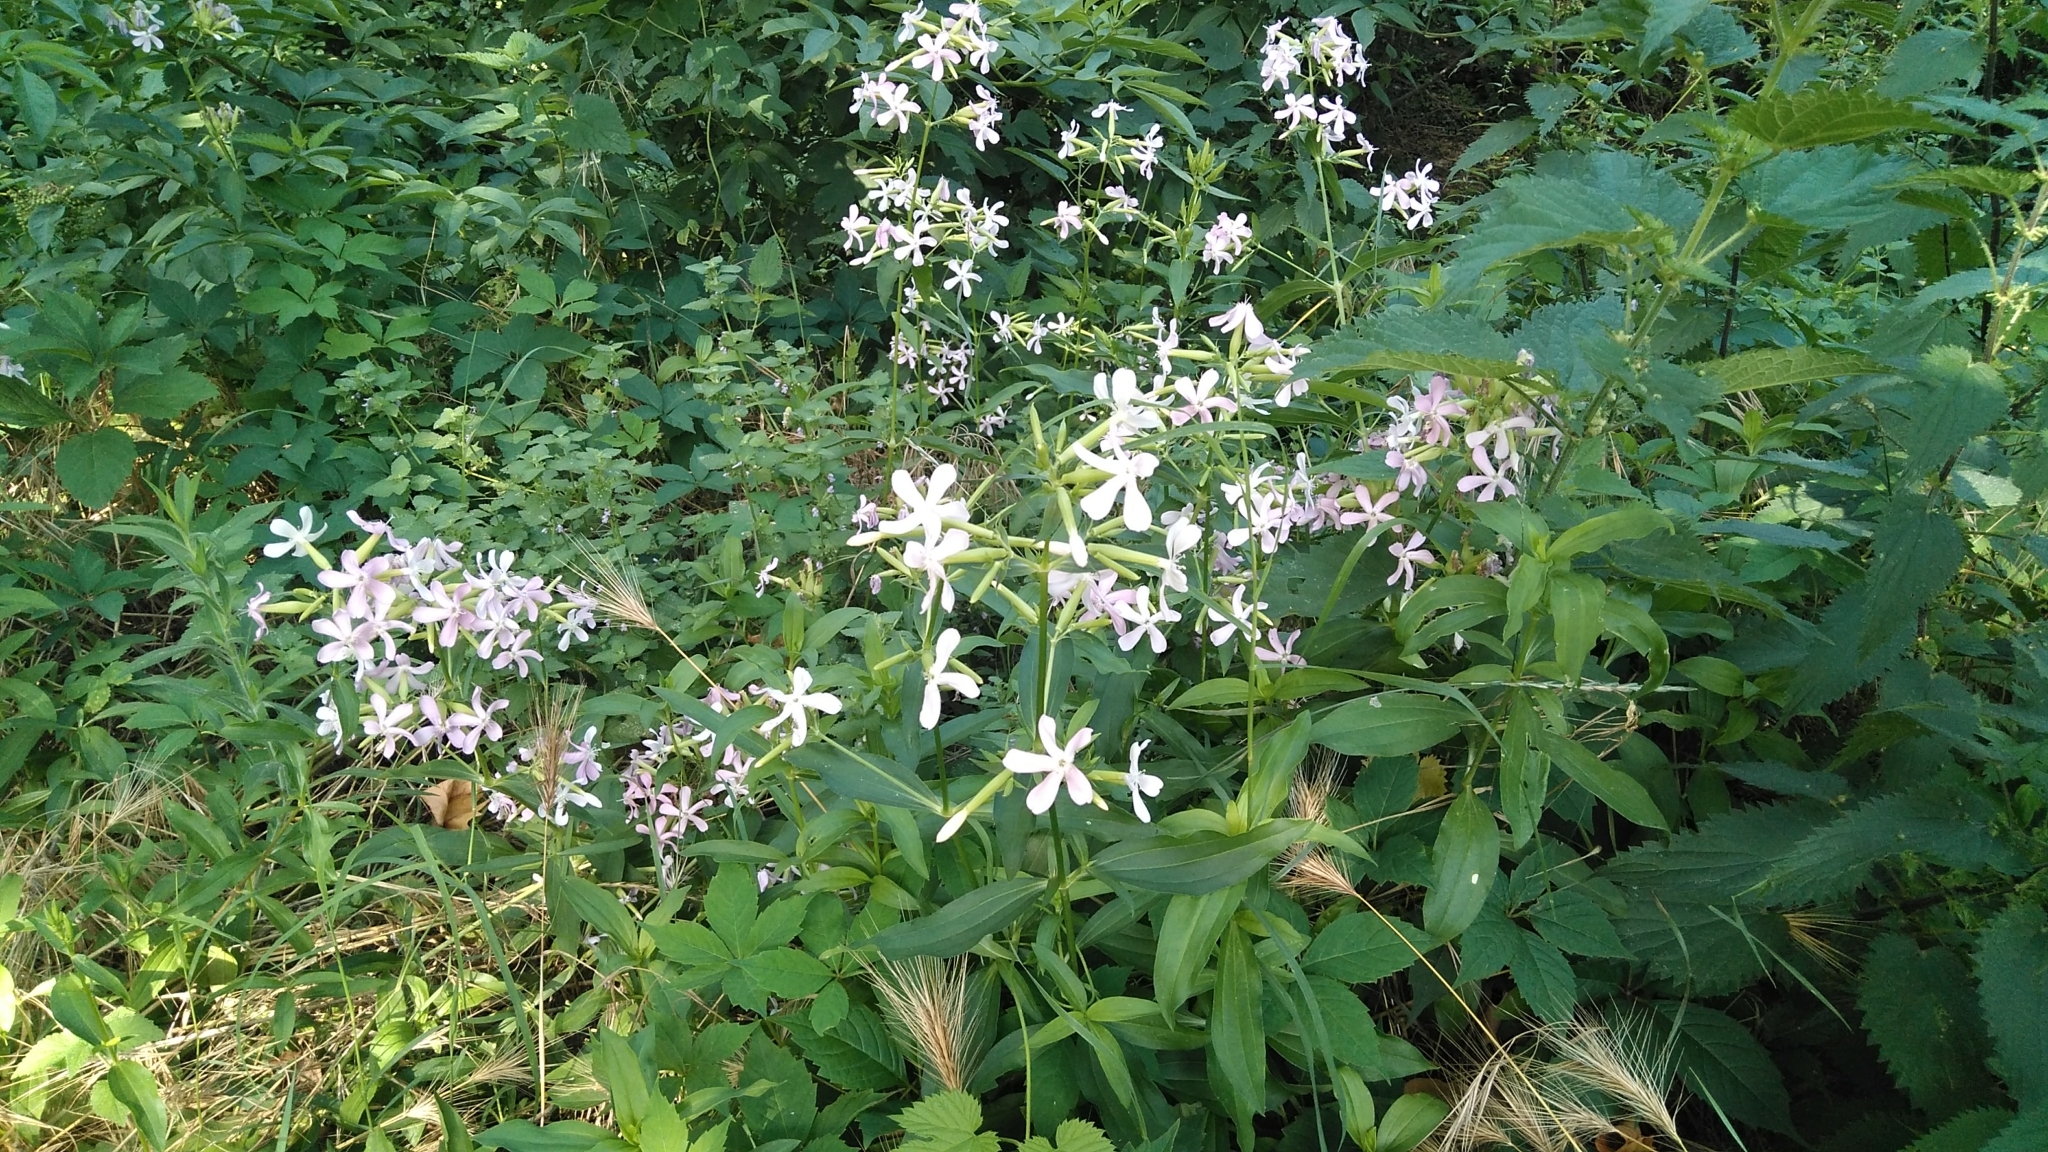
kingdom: Plantae
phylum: Tracheophyta
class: Magnoliopsida
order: Caryophyllales
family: Caryophyllaceae
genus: Saponaria
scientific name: Saponaria officinalis
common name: Soapwort
